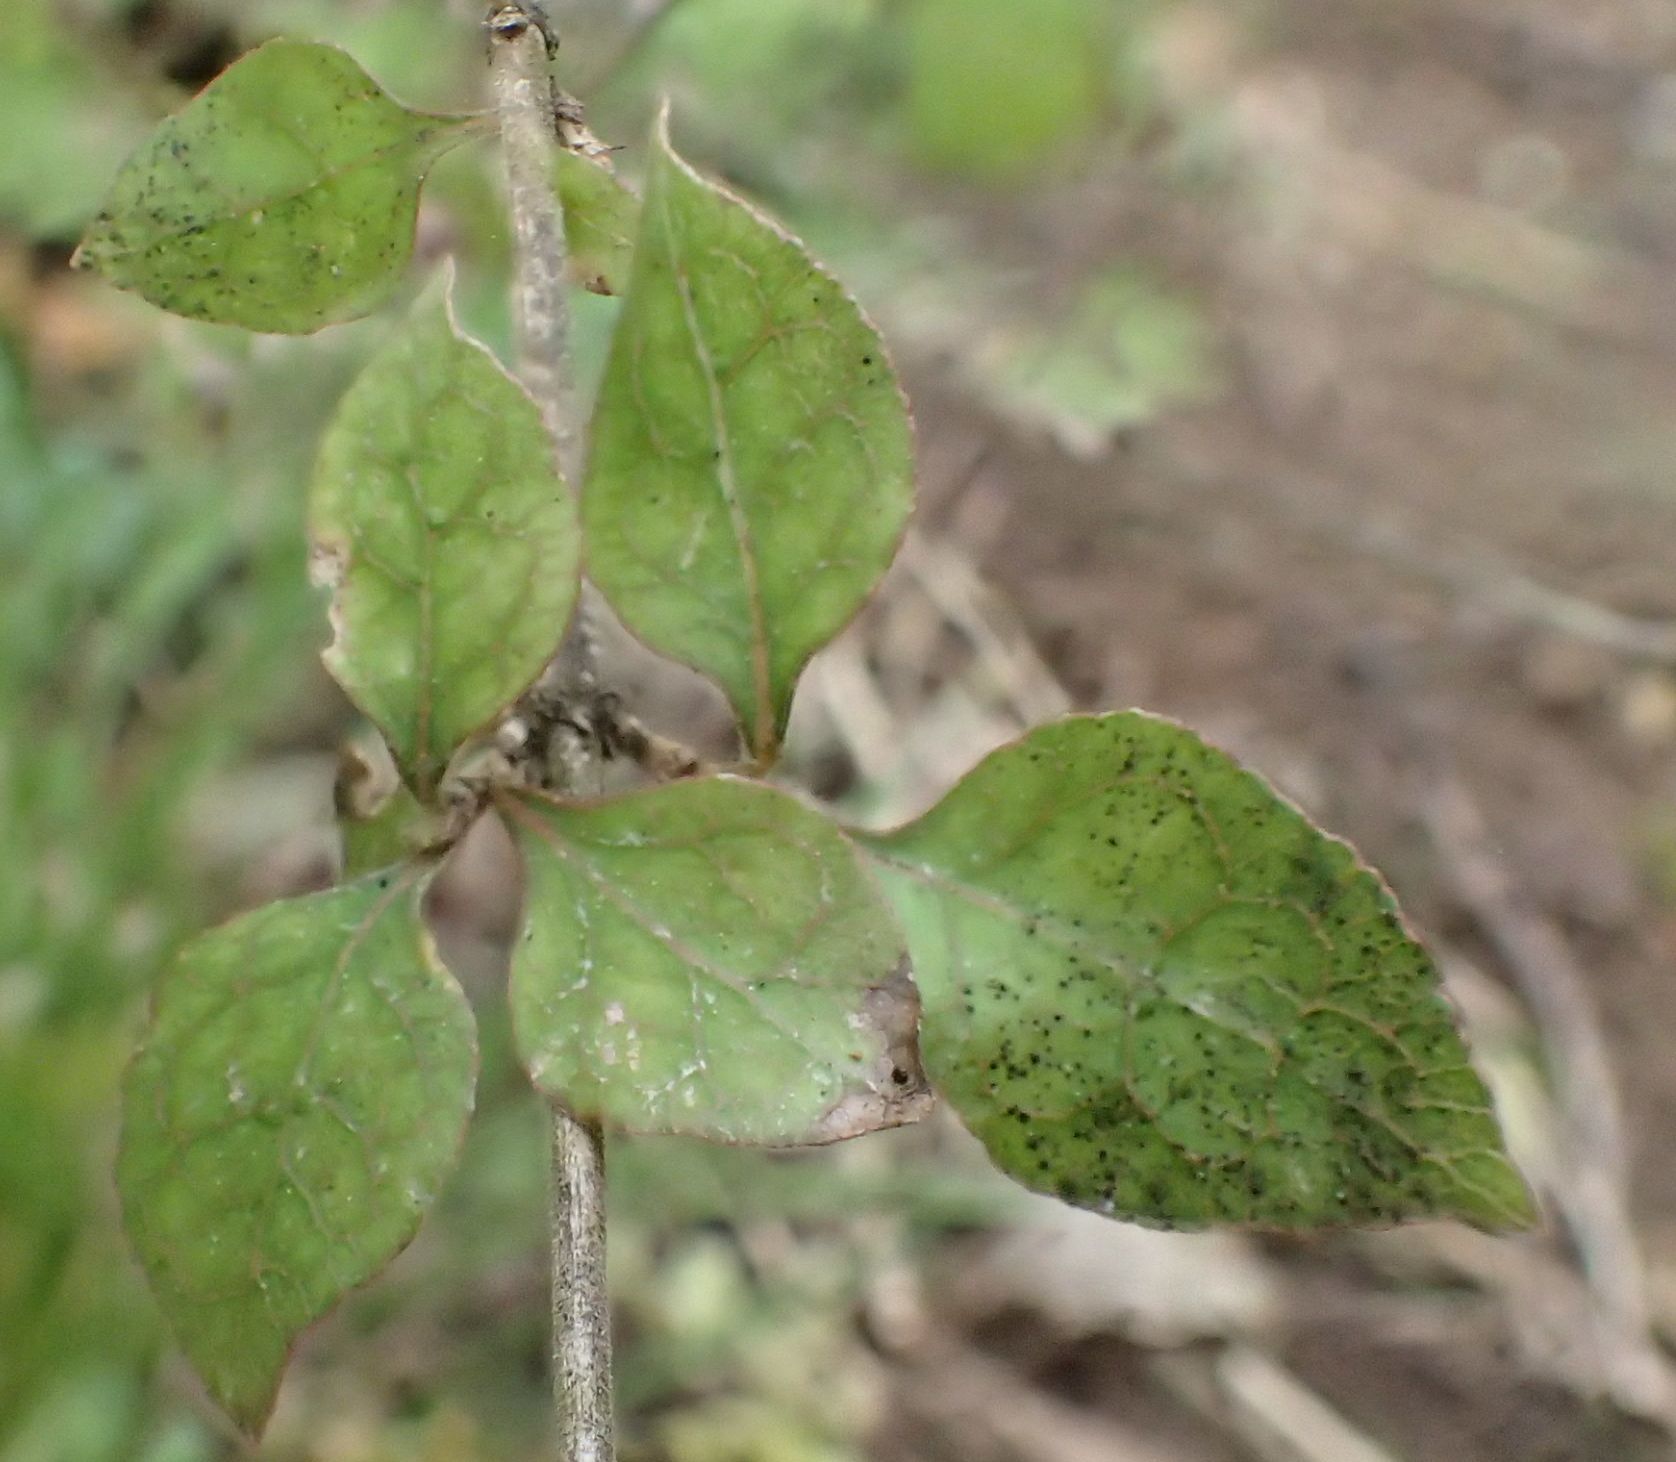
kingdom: Plantae
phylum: Tracheophyta
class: Magnoliopsida
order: Gentianales
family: Rubiaceae
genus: Coprosma
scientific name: Coprosma areolata
